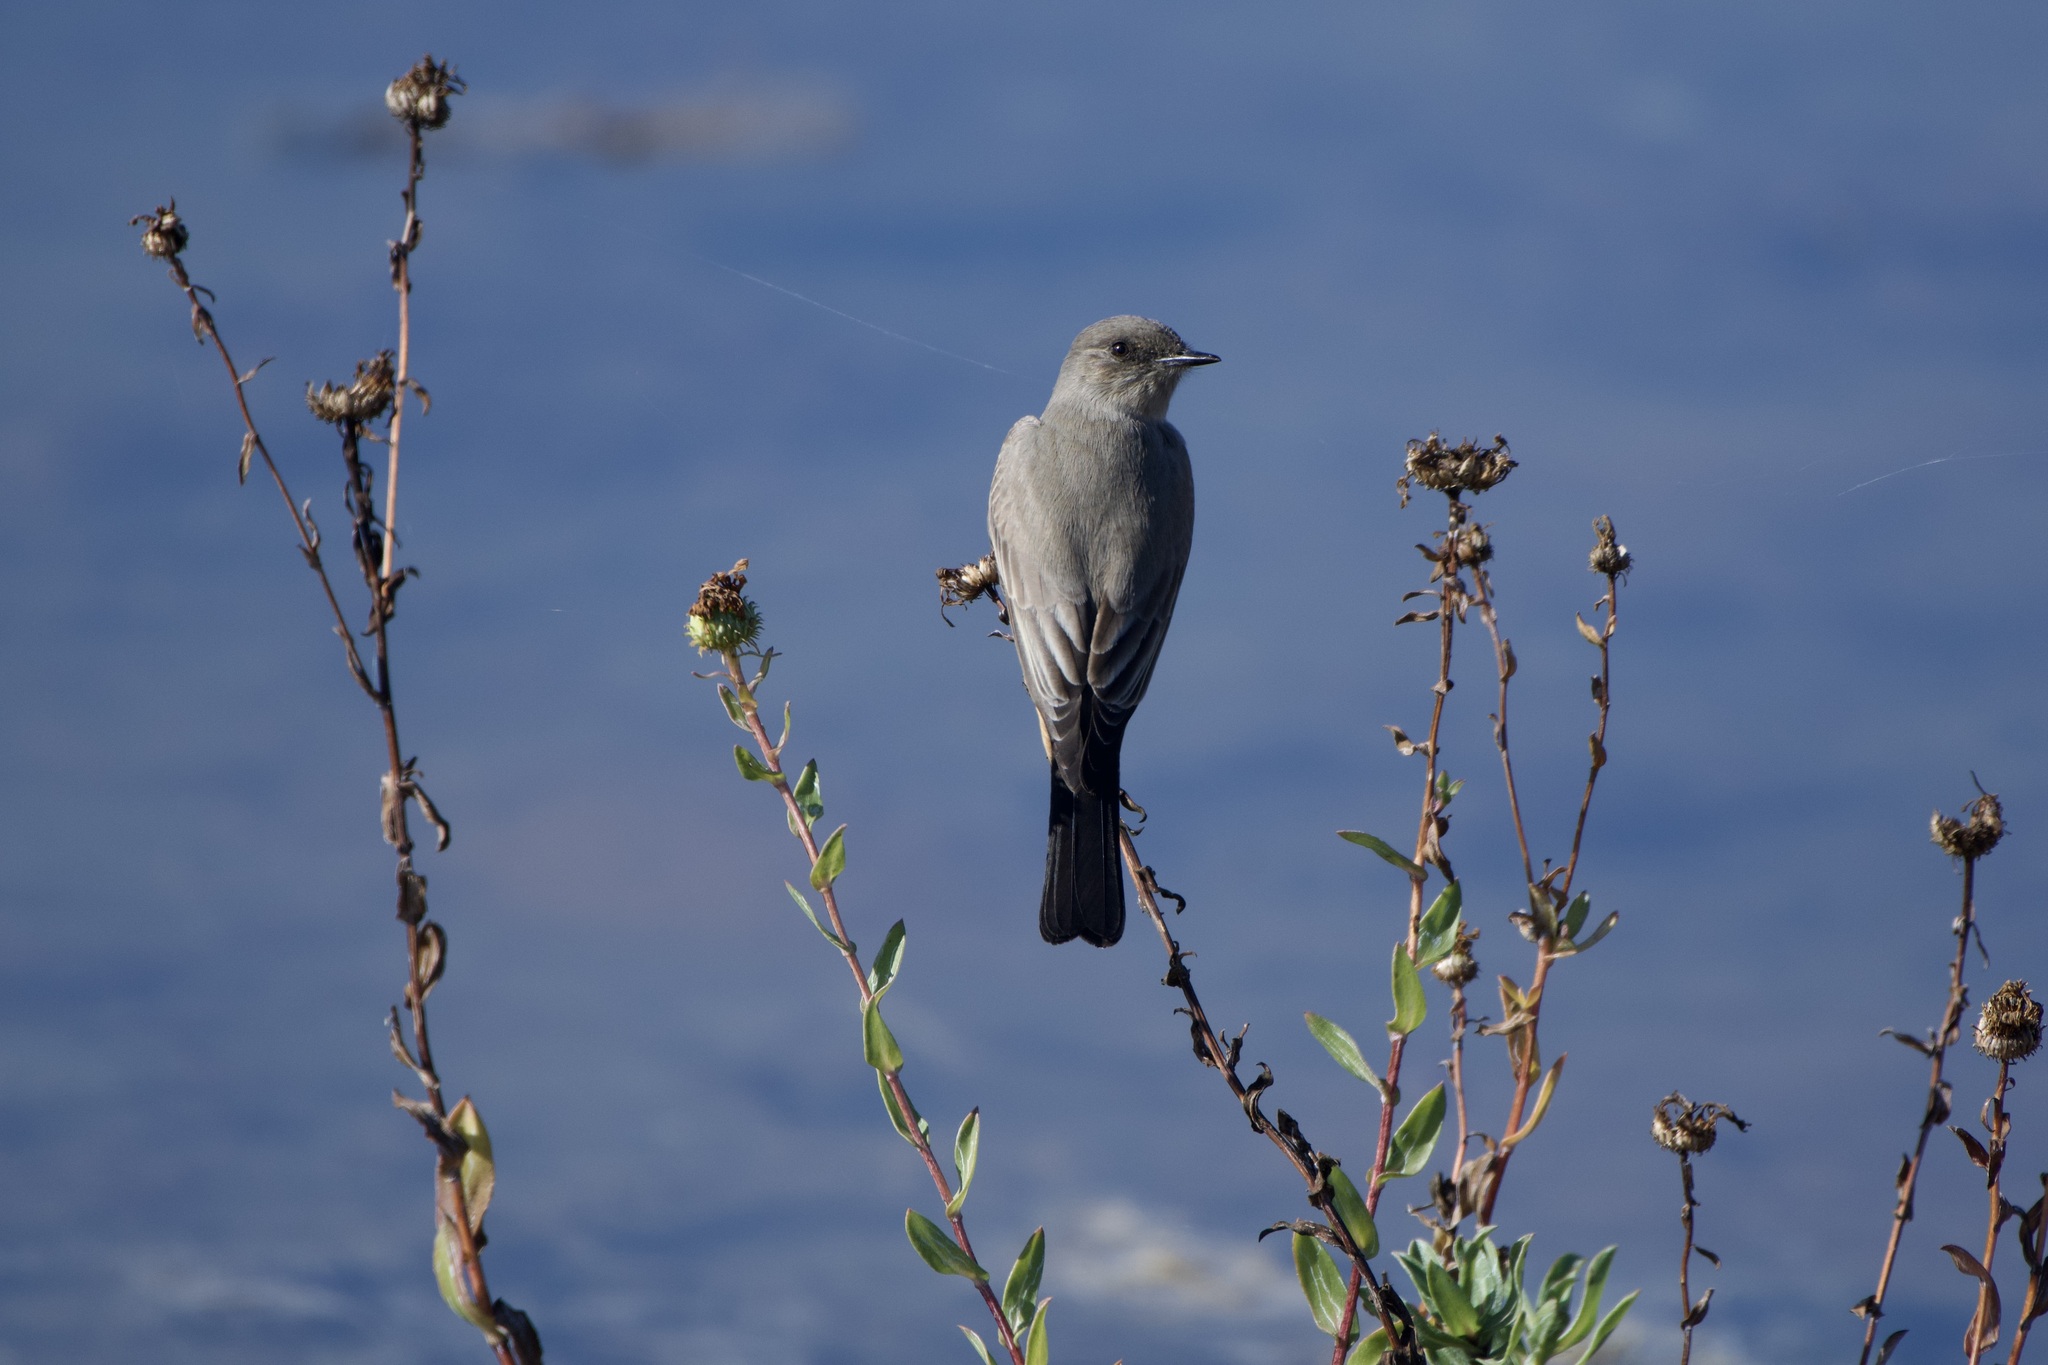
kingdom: Animalia
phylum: Chordata
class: Aves
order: Passeriformes
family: Tyrannidae
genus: Sayornis
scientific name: Sayornis saya
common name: Say's phoebe
